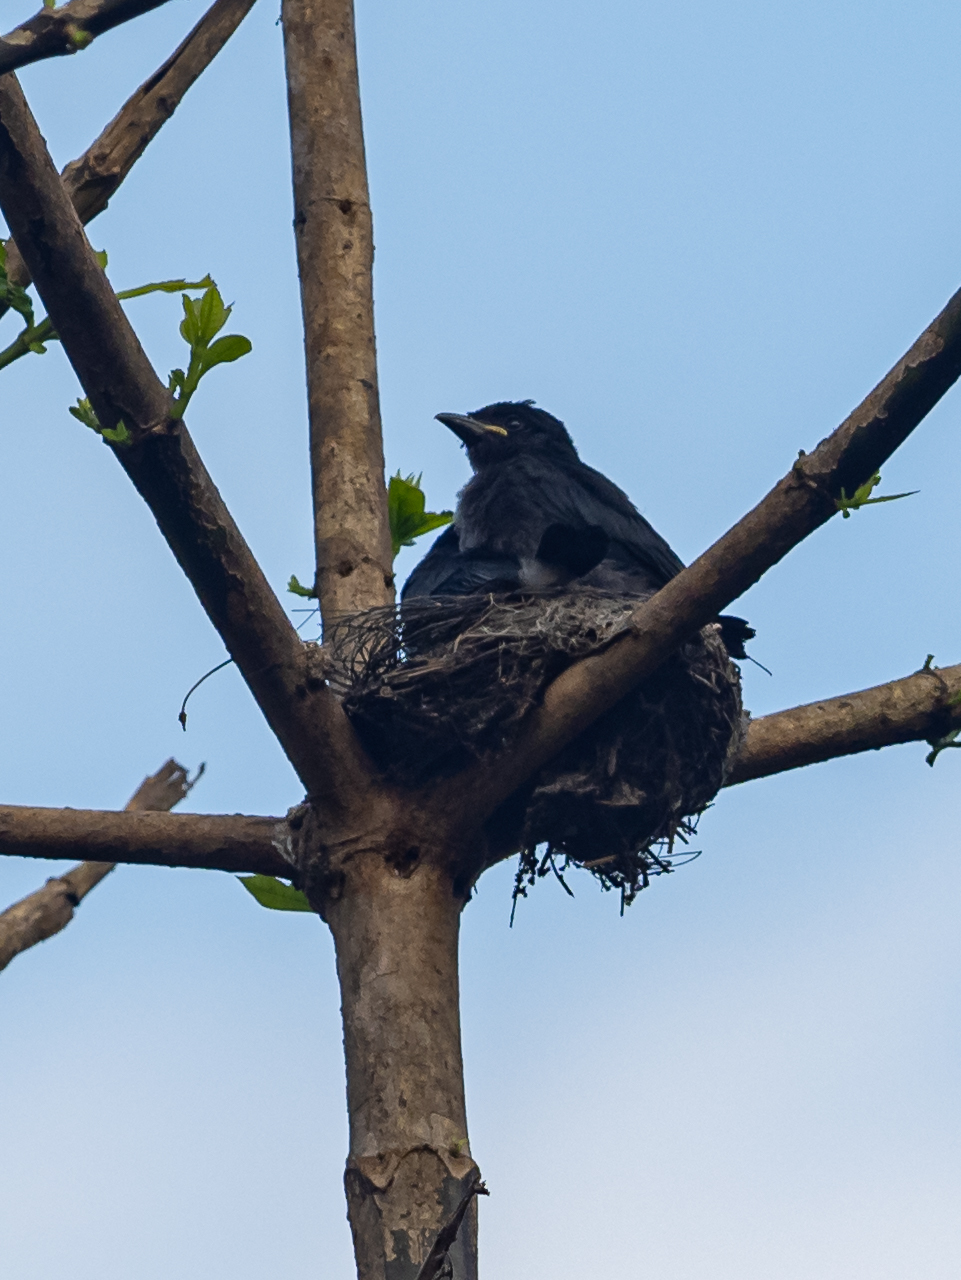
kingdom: Animalia
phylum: Chordata
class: Aves
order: Passeriformes
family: Dicruridae
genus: Dicrurus
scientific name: Dicrurus caerulescens
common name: White-bellied drongo
